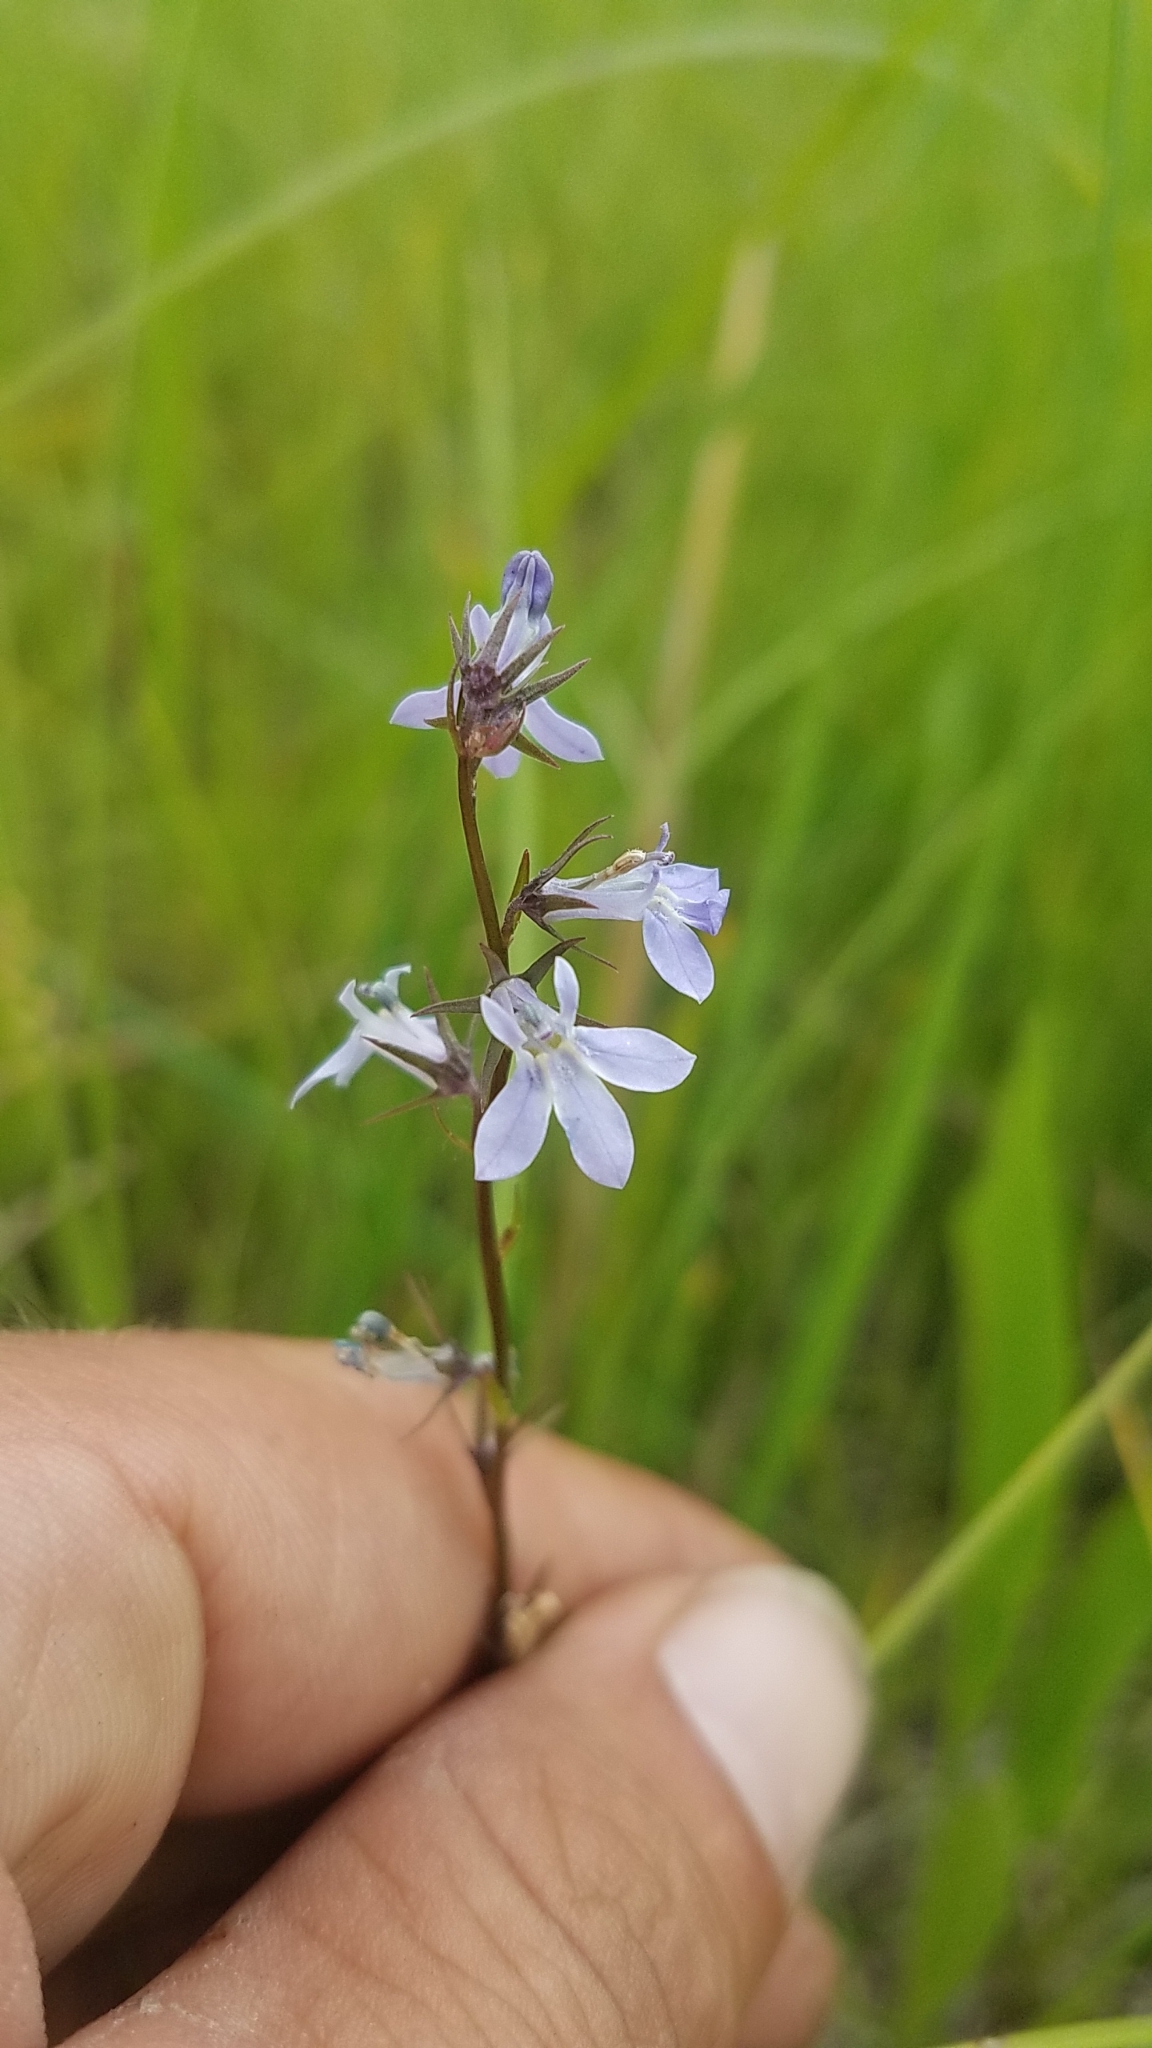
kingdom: Plantae
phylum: Tracheophyta
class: Magnoliopsida
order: Asterales
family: Campanulaceae
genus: Lobelia
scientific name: Lobelia spicata
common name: Pale-spike lobelia
